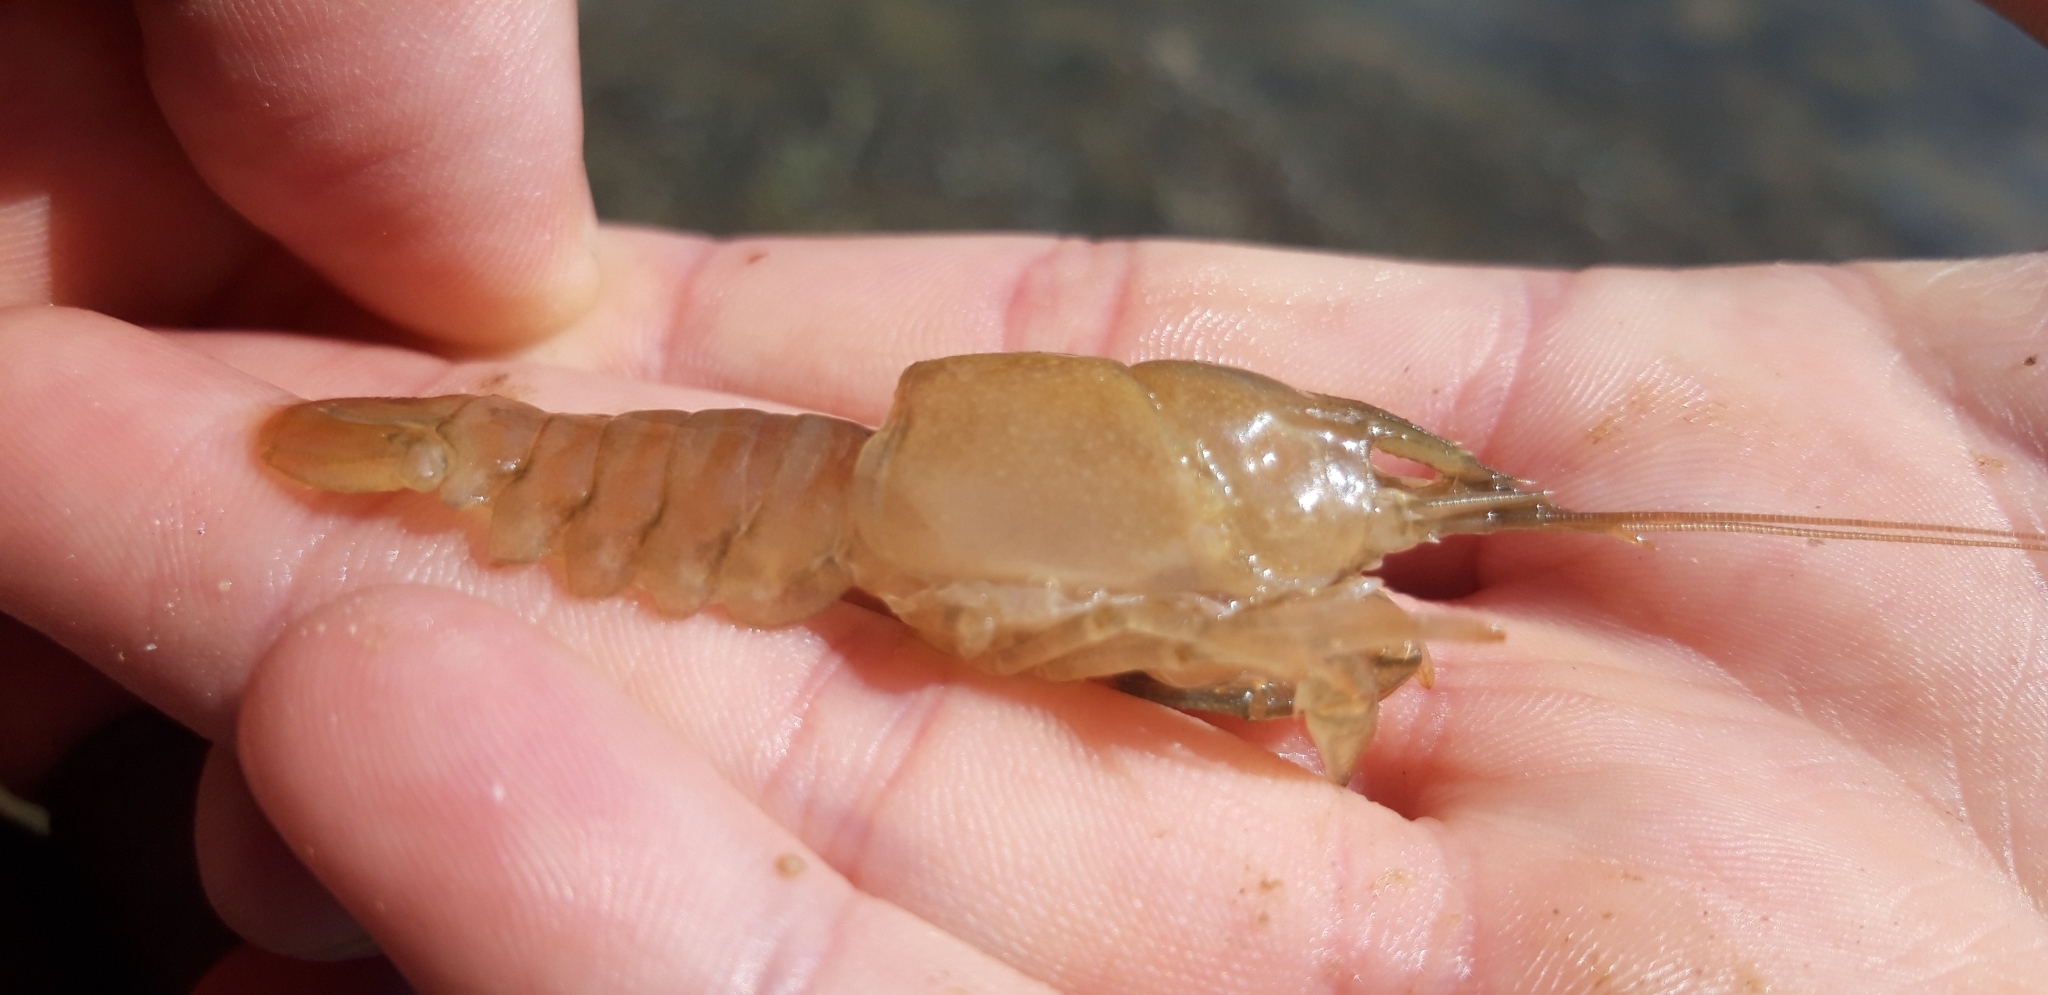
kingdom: Animalia
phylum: Arthropoda
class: Malacostraca
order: Decapoda
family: Cambaridae
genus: Procambarus
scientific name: Procambarus clarkii
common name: Red swamp crayfish
